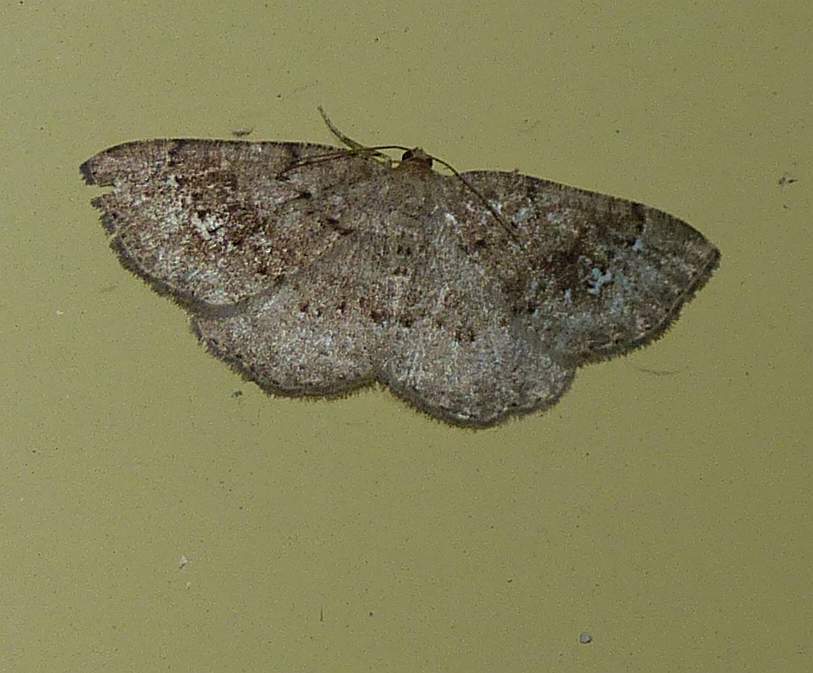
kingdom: Animalia
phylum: Arthropoda
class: Insecta
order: Lepidoptera
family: Geometridae
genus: Homochlodes
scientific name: Homochlodes fritillaria
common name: Pale homochlodes
